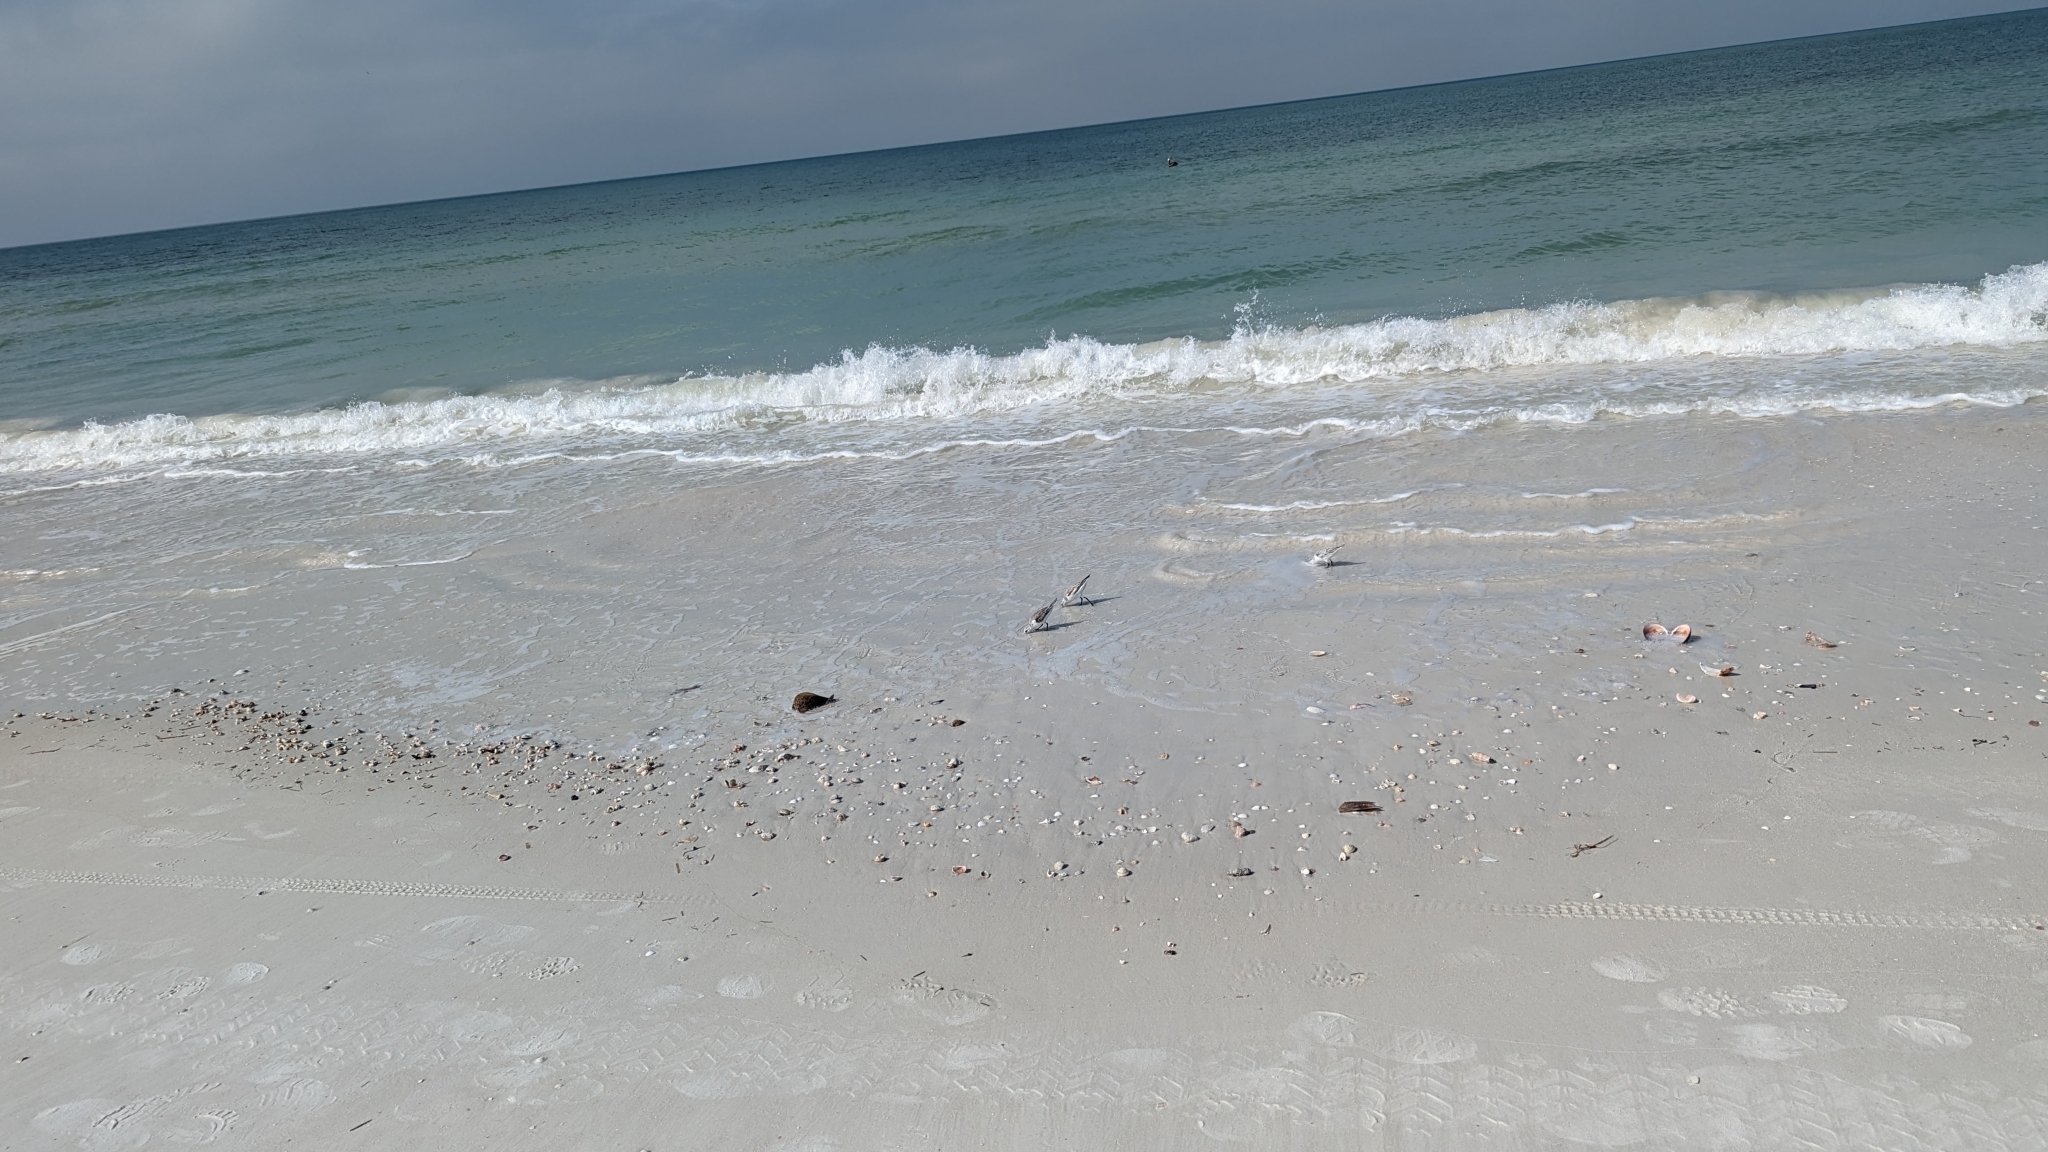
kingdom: Animalia
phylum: Chordata
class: Aves
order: Charadriiformes
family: Scolopacidae
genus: Calidris
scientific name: Calidris alba
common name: Sanderling
